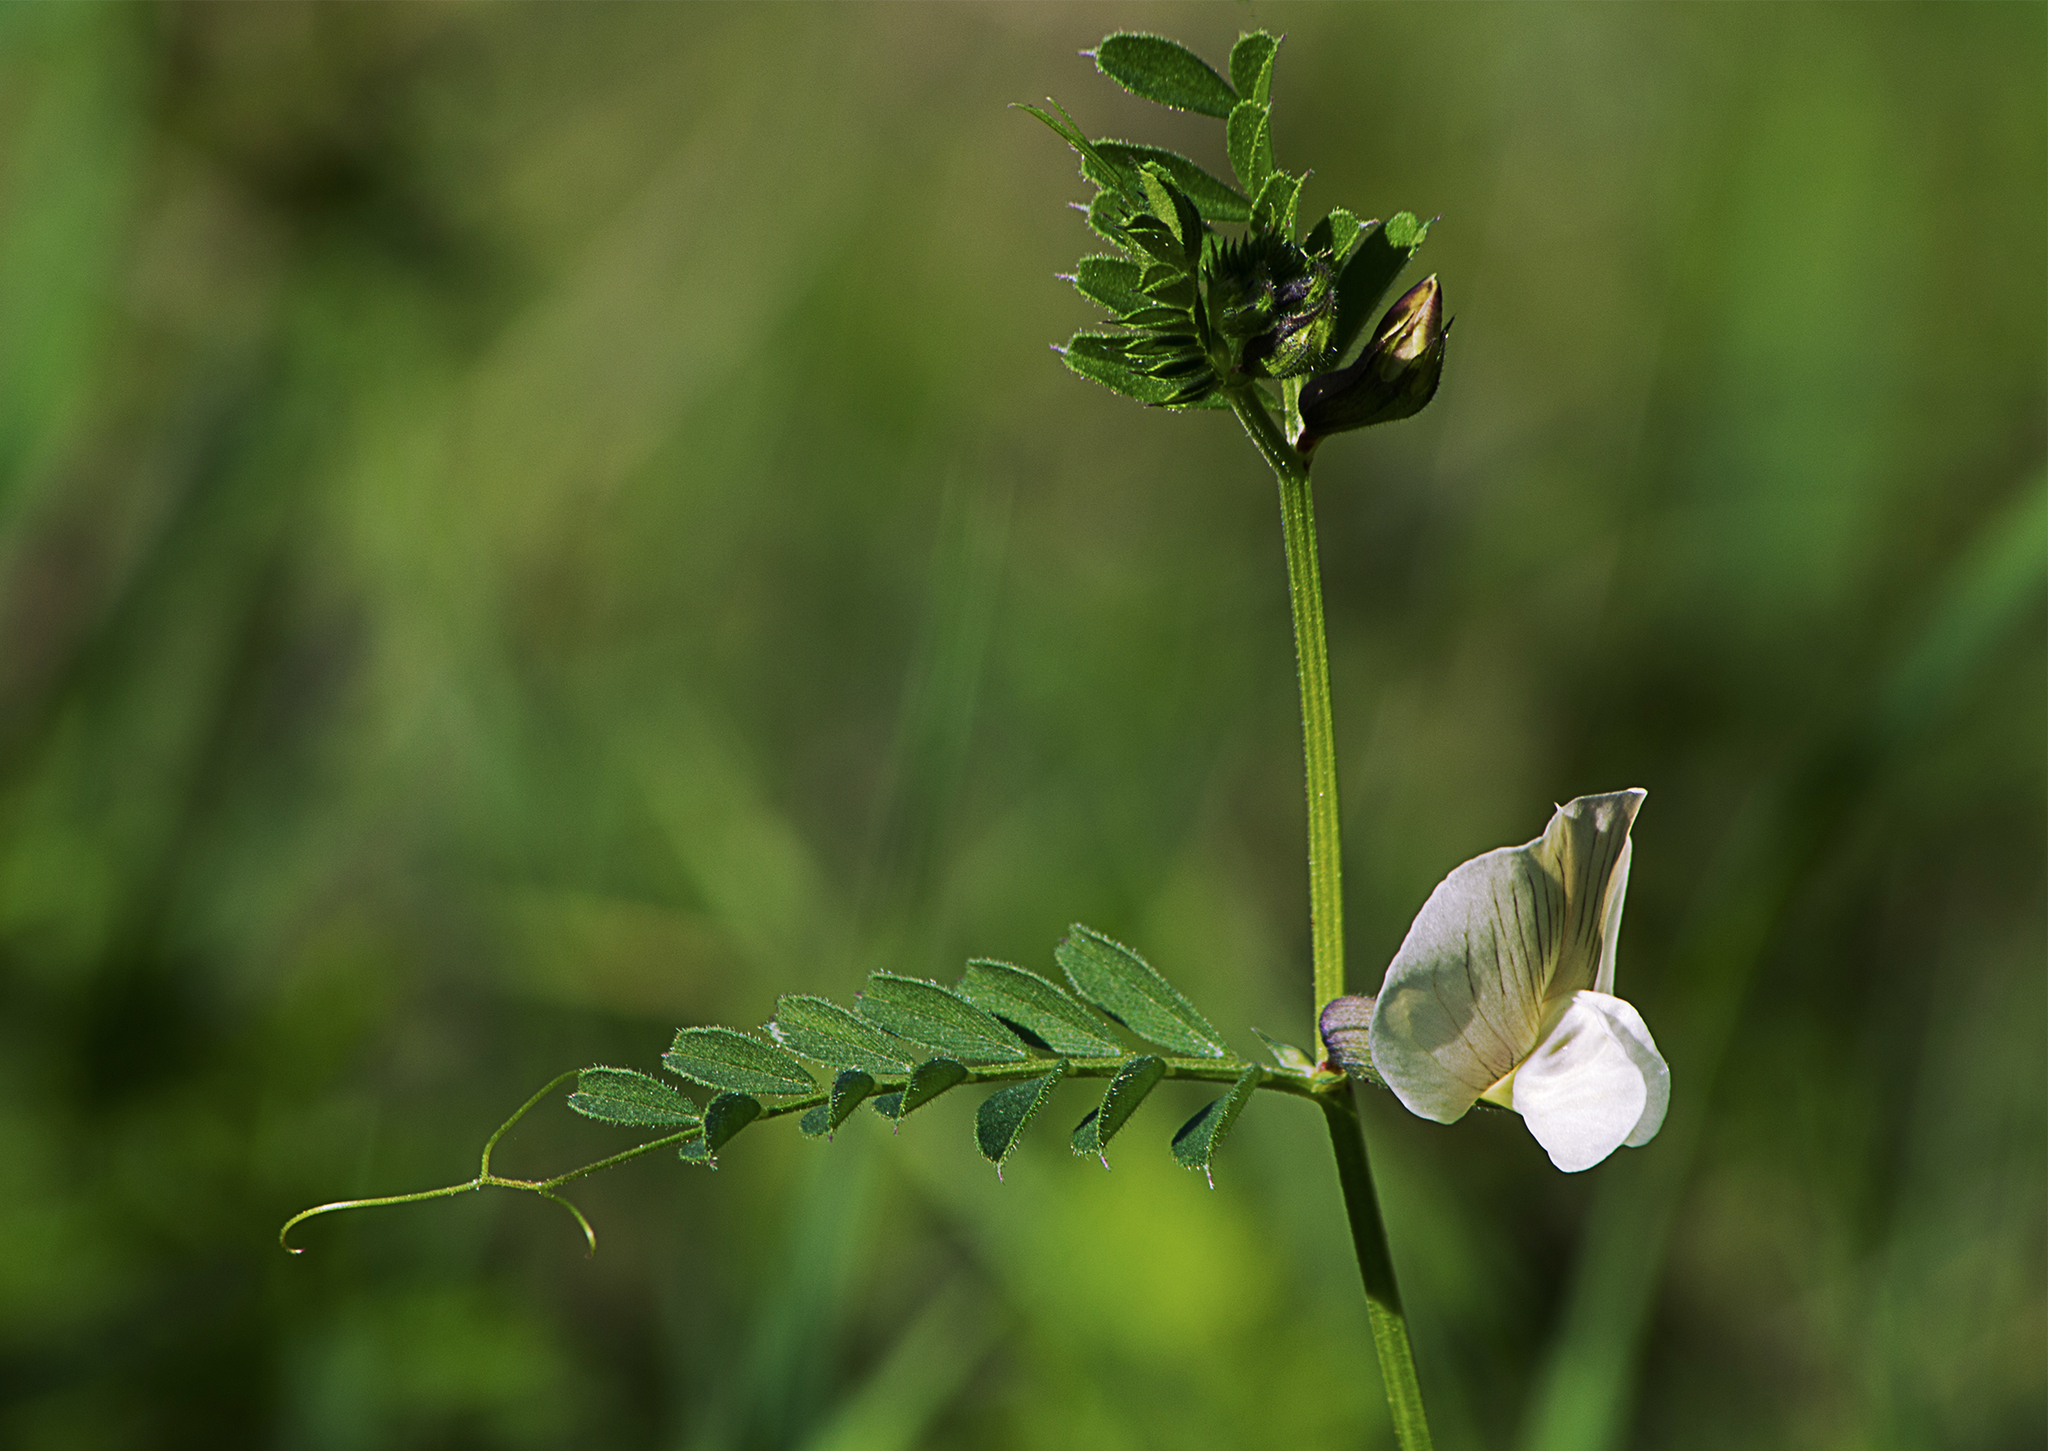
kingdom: Plantae
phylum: Tracheophyta
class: Magnoliopsida
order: Fabales
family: Fabaceae
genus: Vicia
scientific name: Vicia grandiflora
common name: Large yellow vetch
